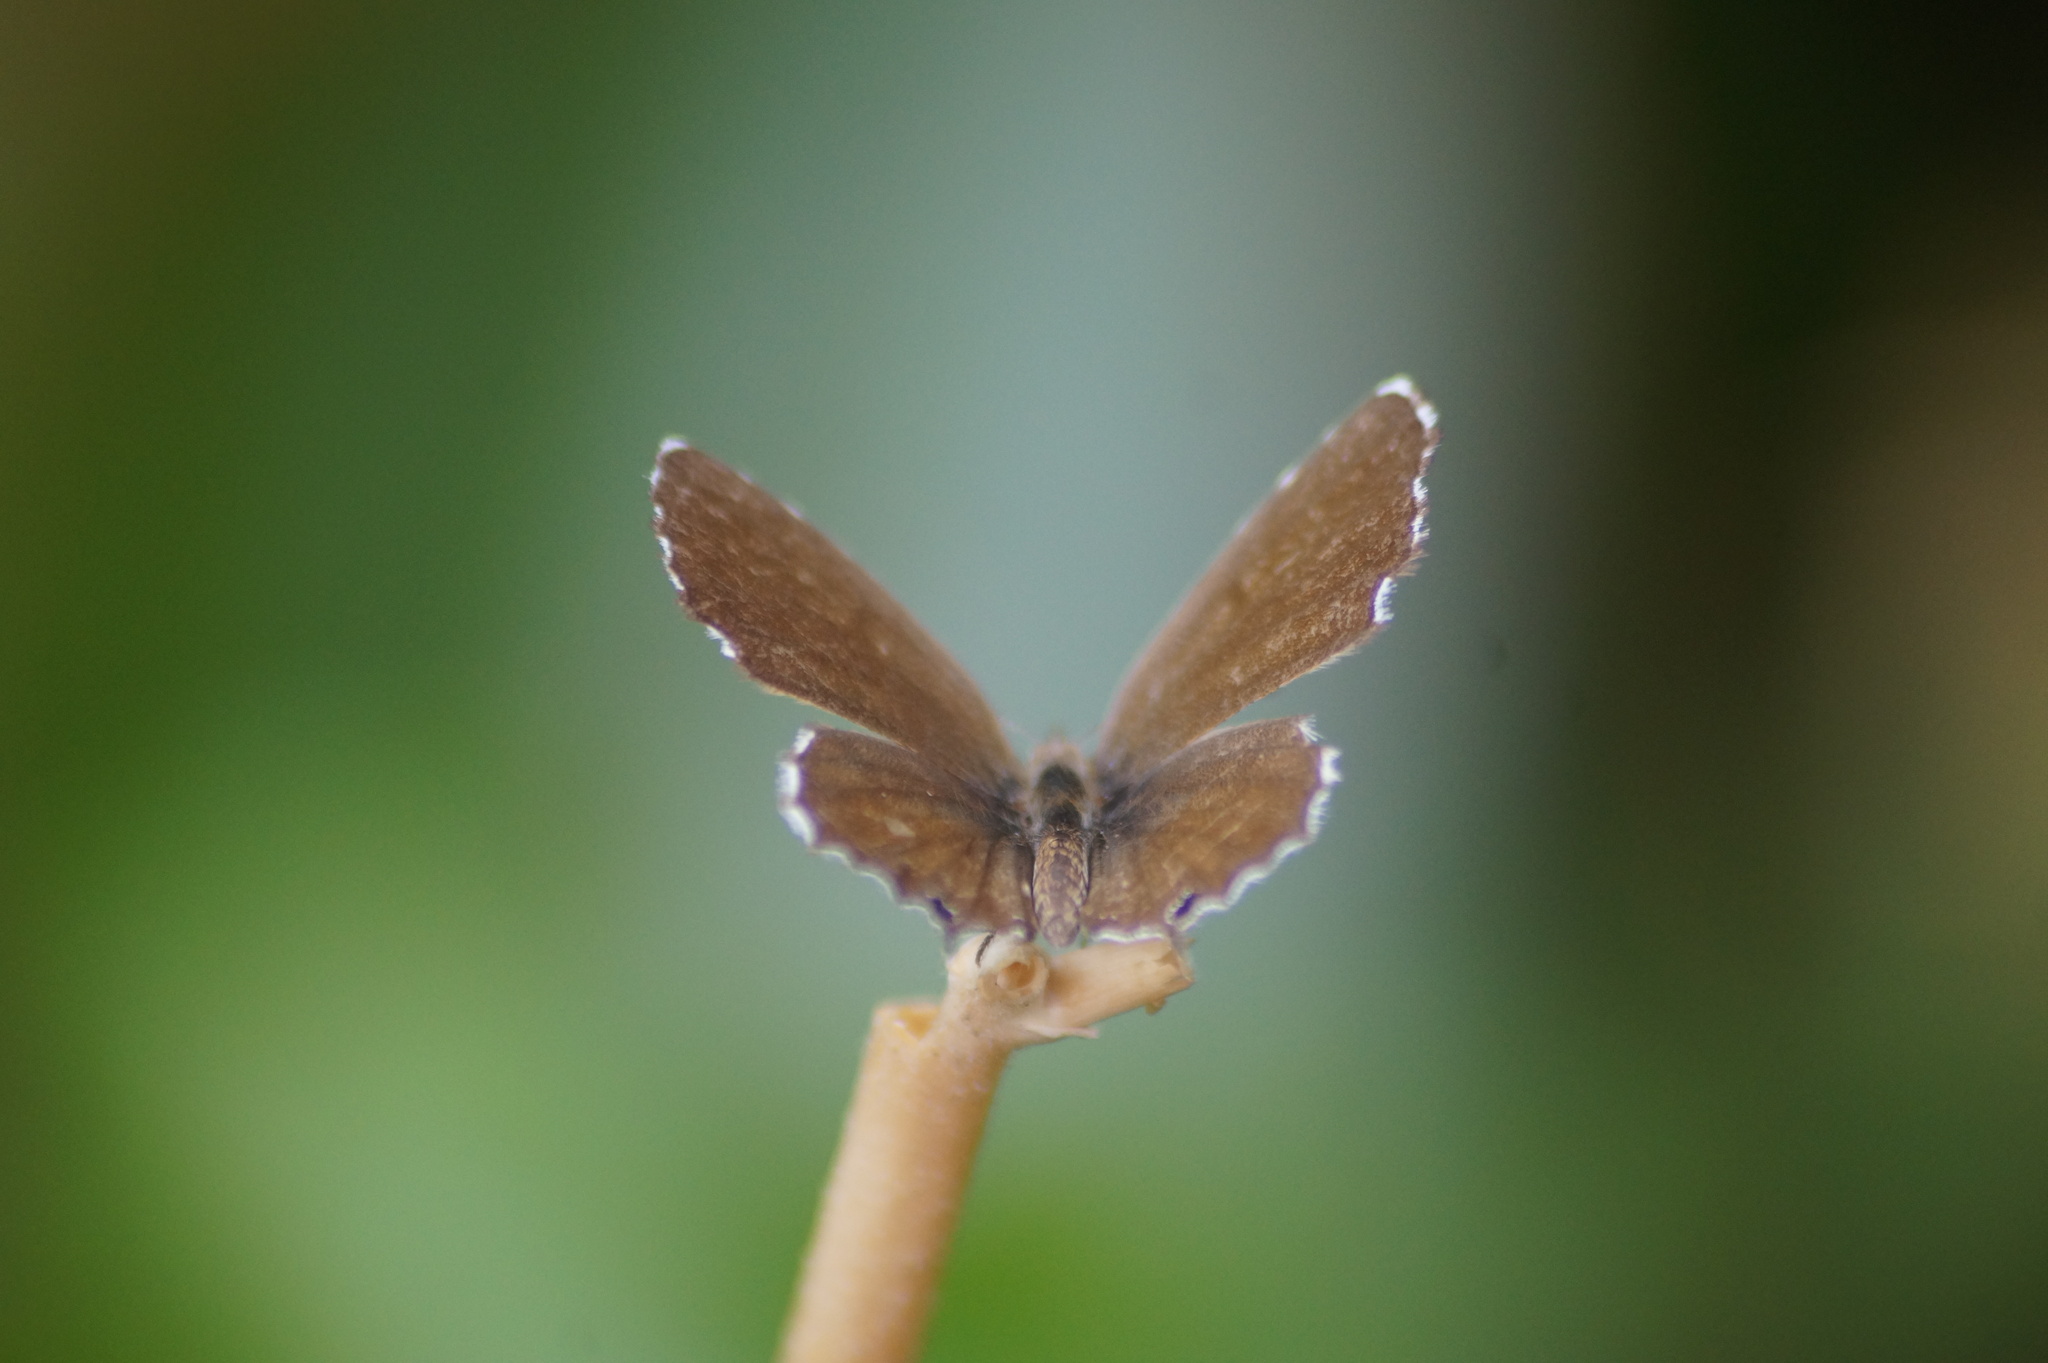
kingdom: Animalia
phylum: Arthropoda
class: Insecta
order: Lepidoptera
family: Lycaenidae
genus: Cacyreus
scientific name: Cacyreus marshalli
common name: Geranium bronze
